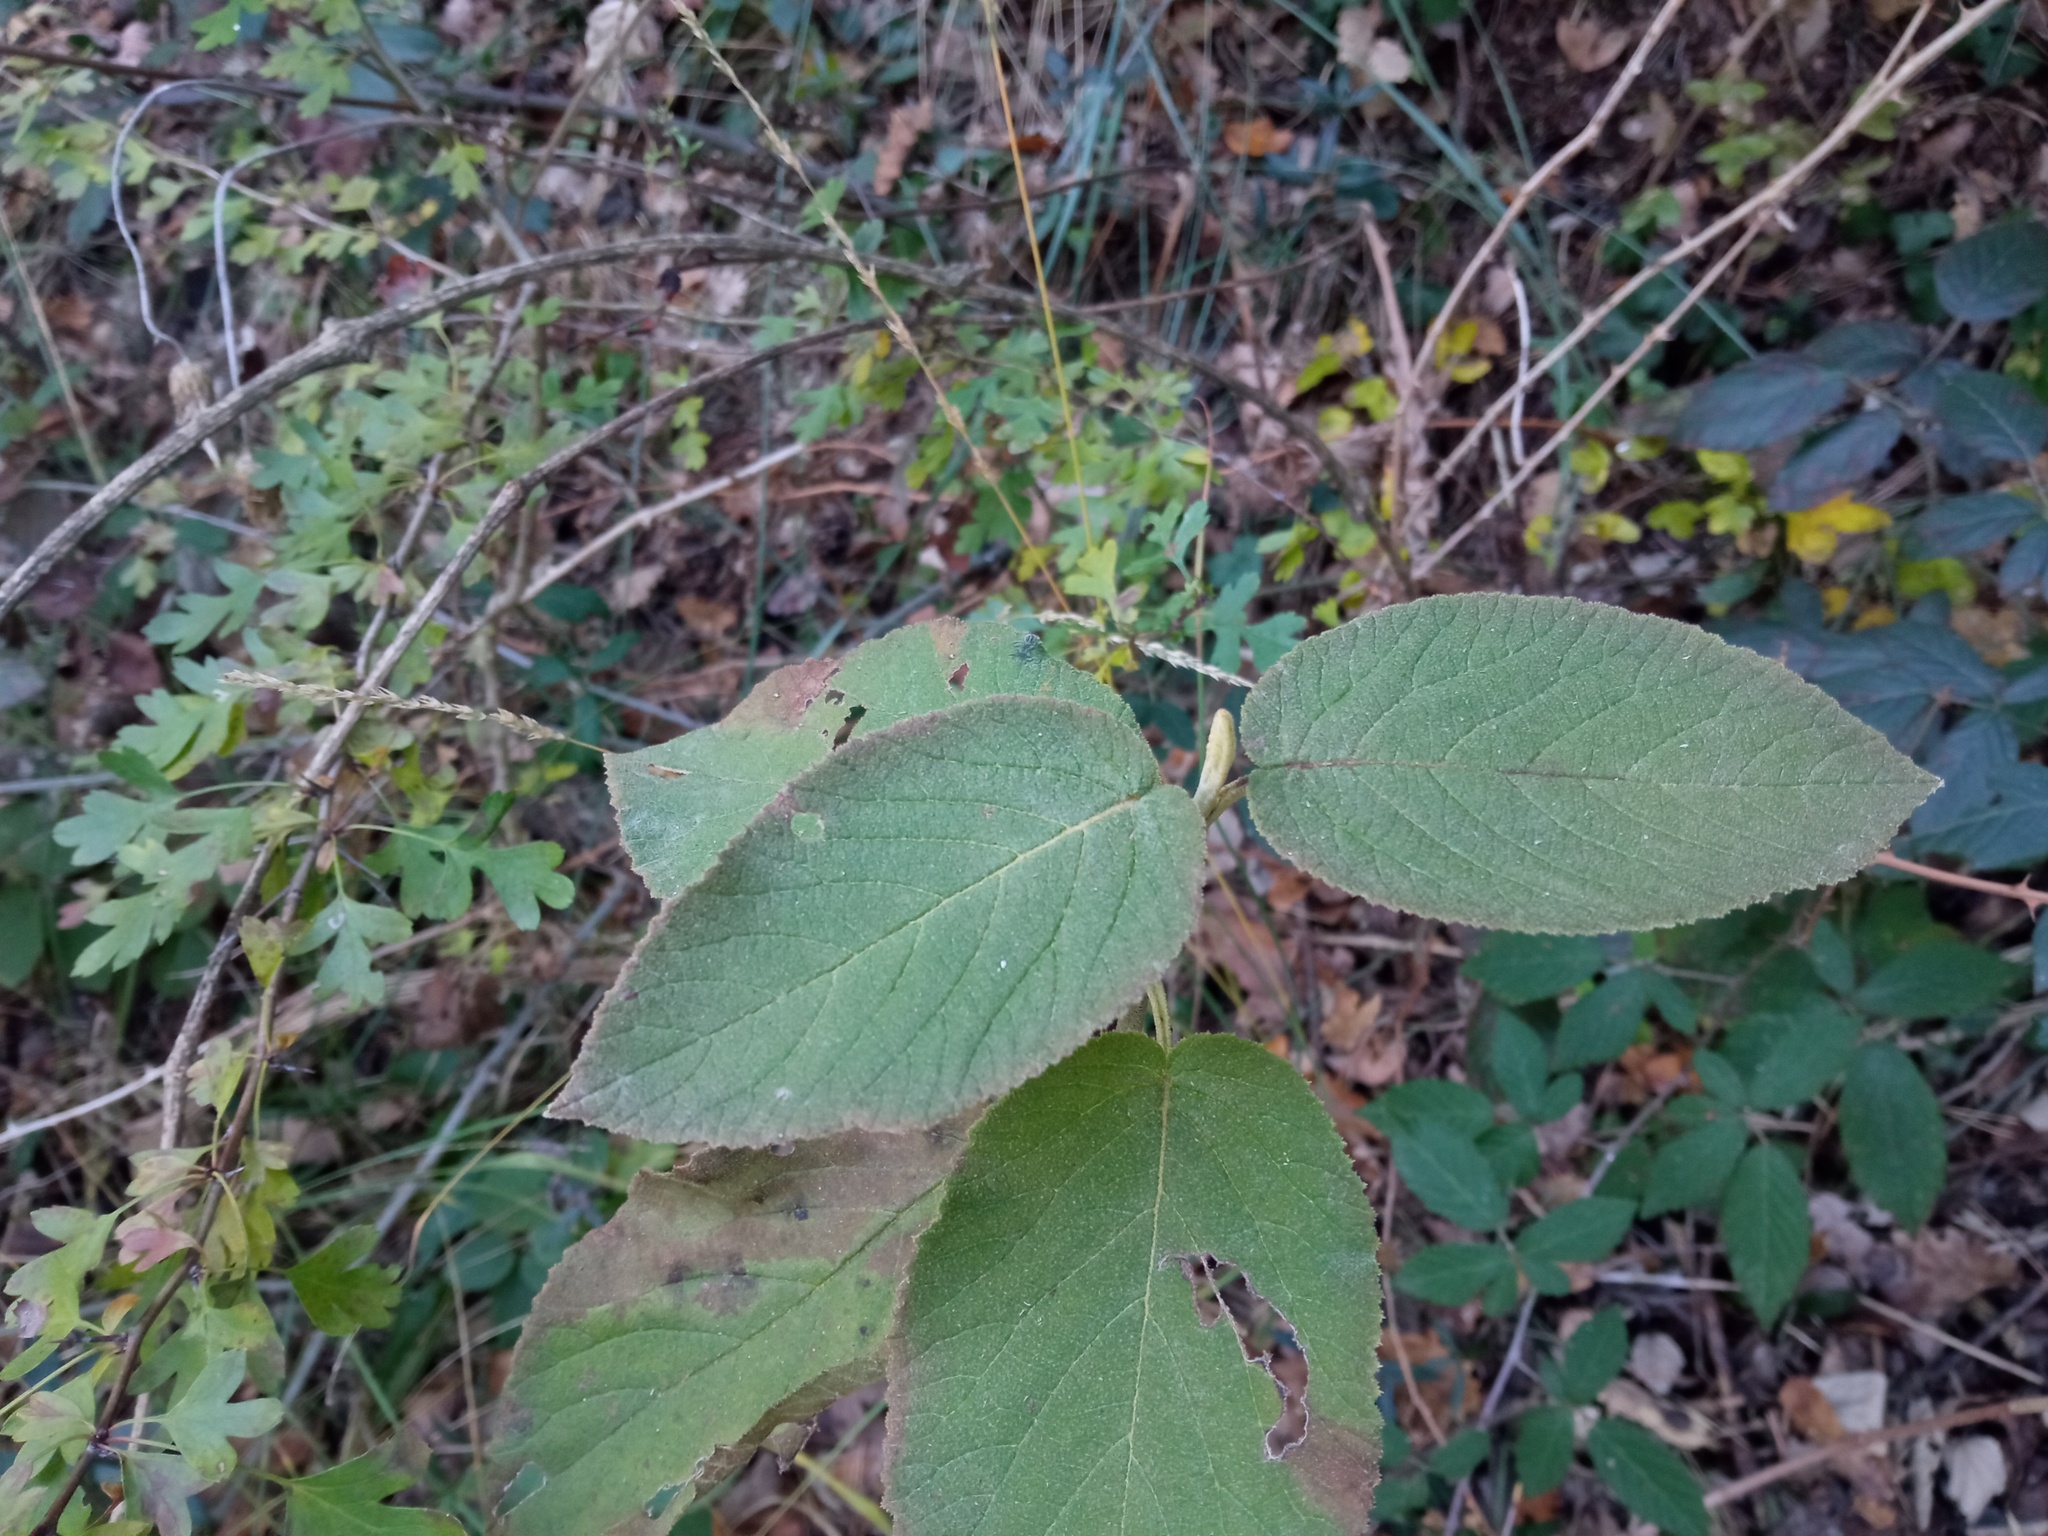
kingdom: Plantae
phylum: Tracheophyta
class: Magnoliopsida
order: Dipsacales
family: Viburnaceae
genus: Viburnum
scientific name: Viburnum lantana
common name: Wayfaring tree
